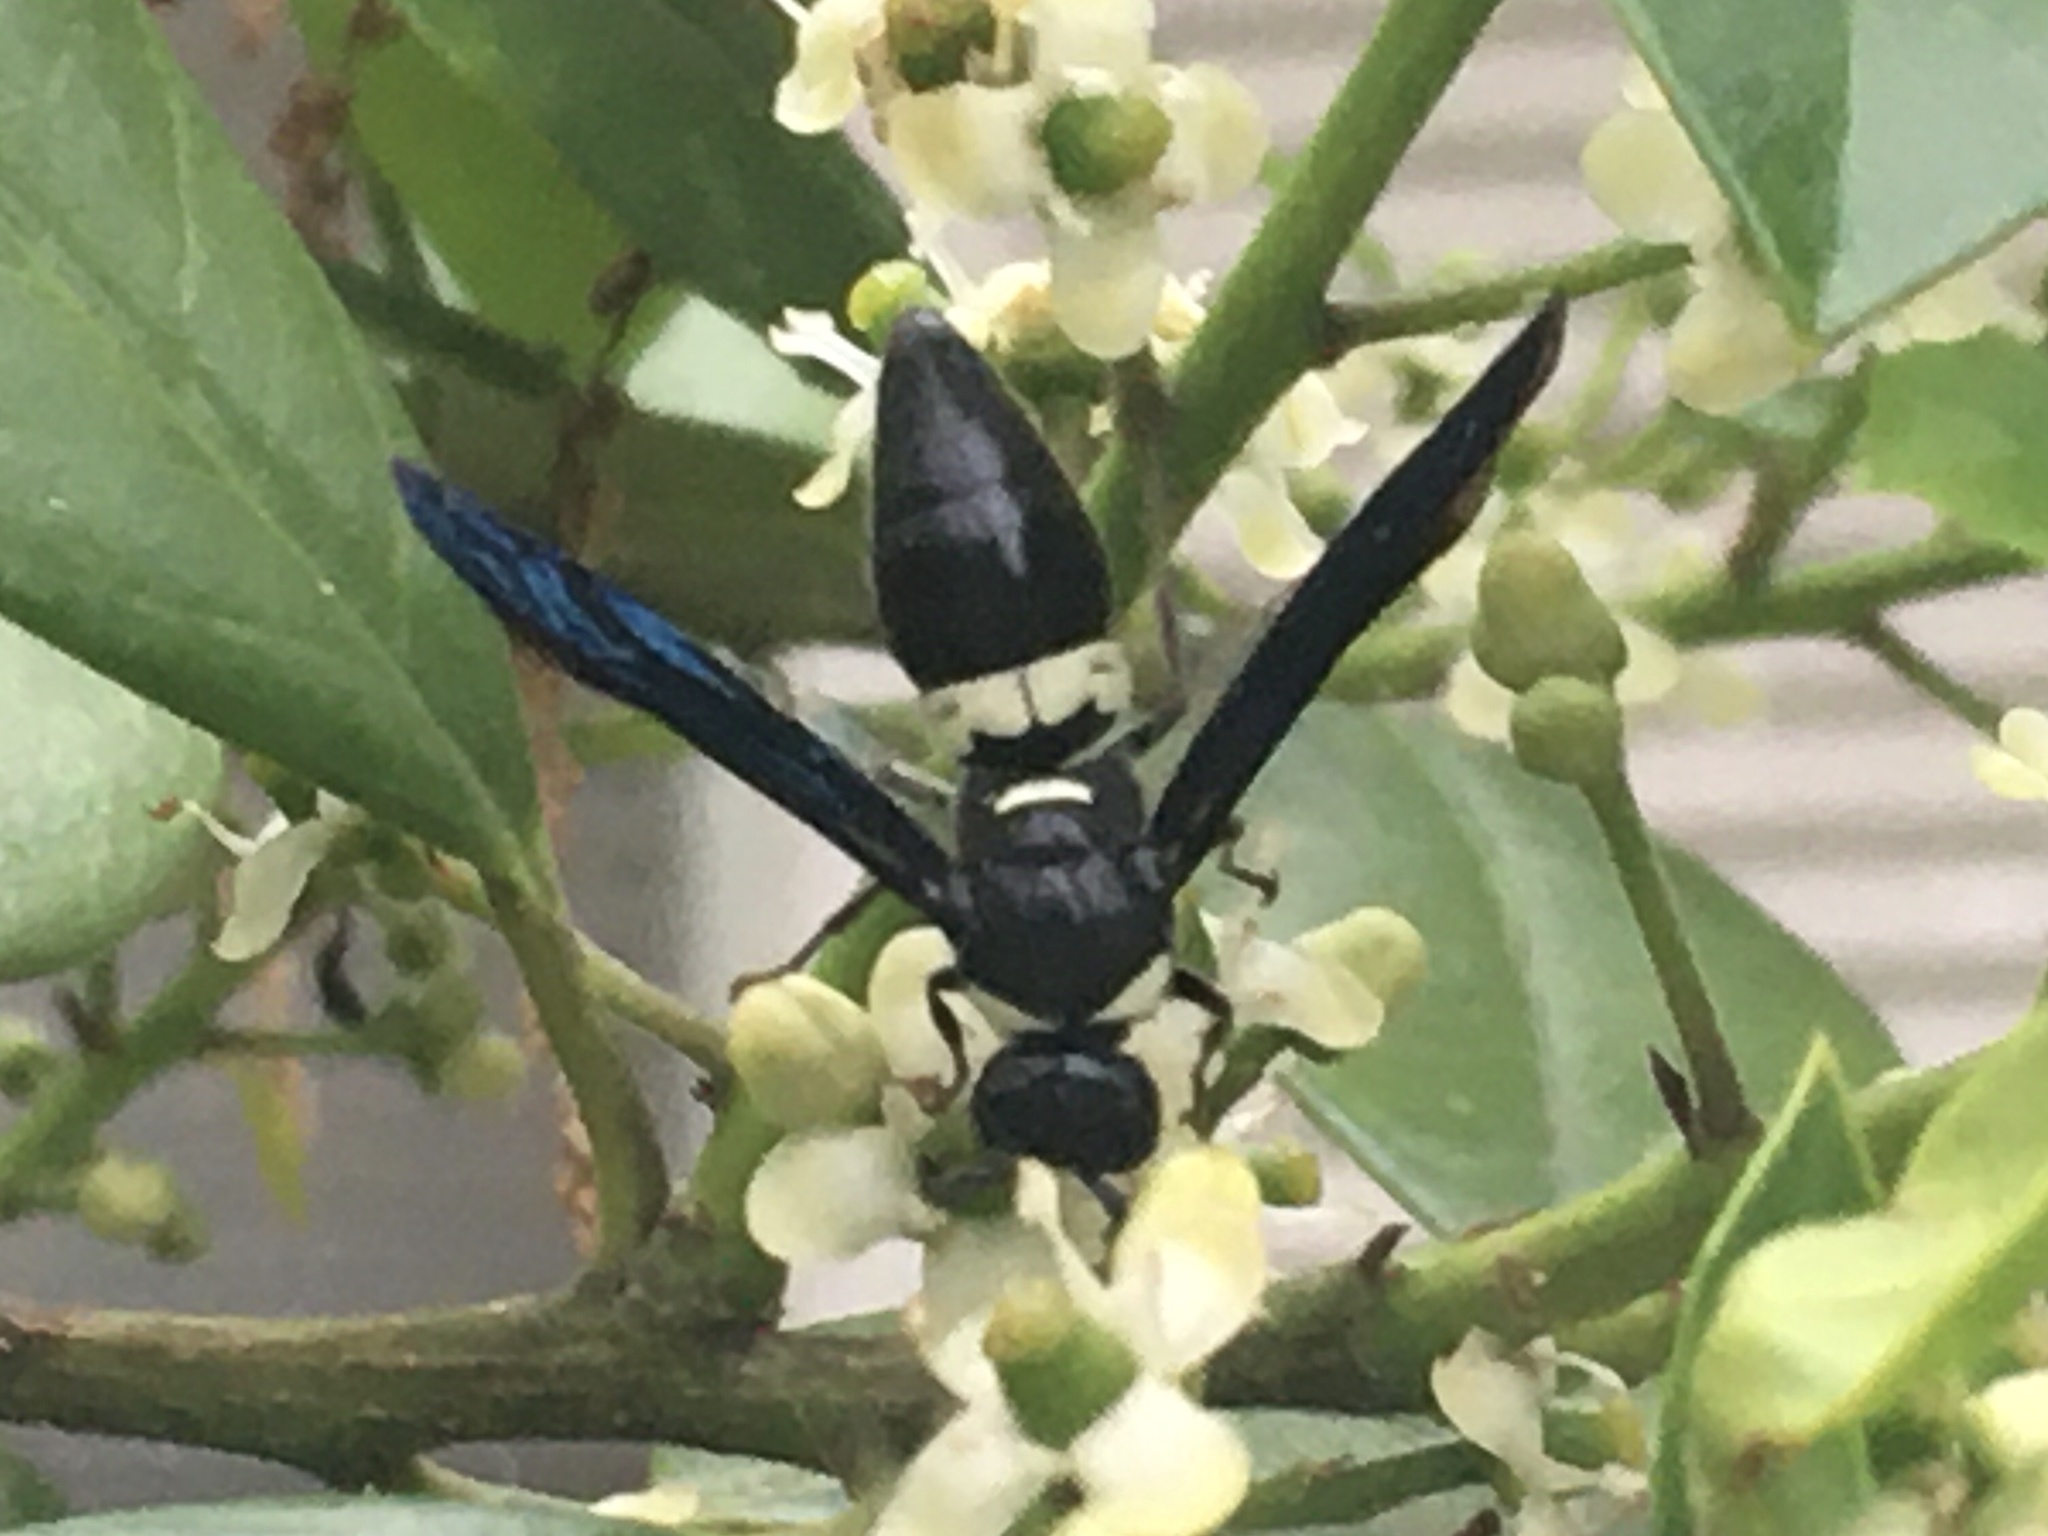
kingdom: Animalia
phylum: Arthropoda
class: Insecta
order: Hymenoptera
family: Eumenidae
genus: Monobia
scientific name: Monobia quadridens
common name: Four-toothed mason wasp
